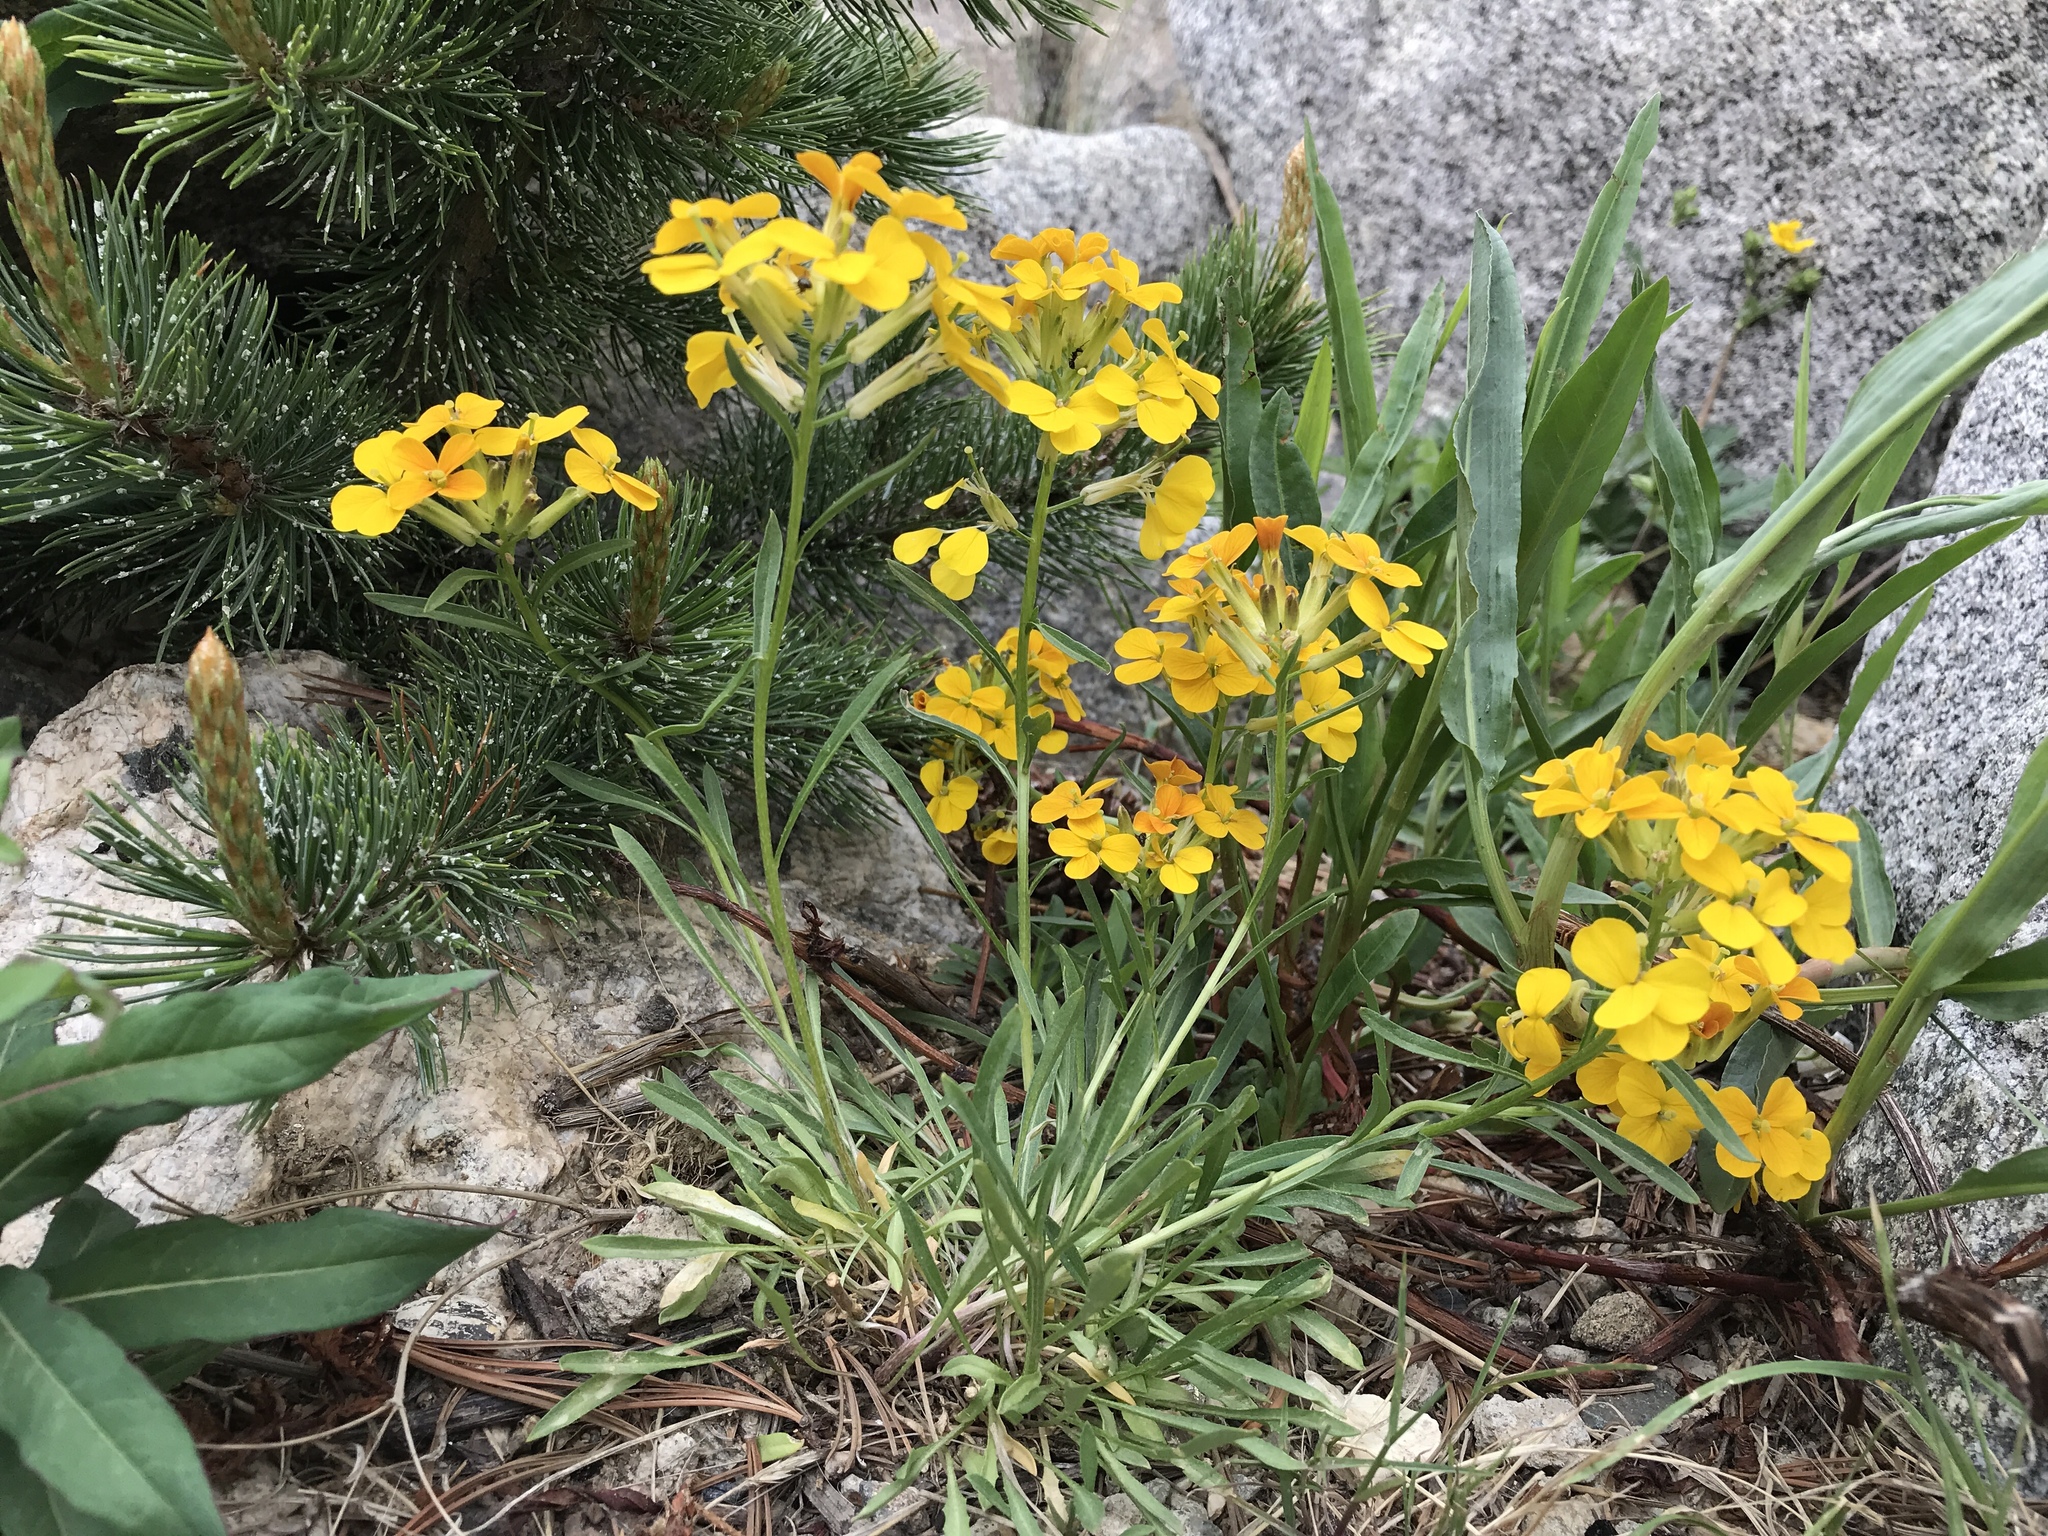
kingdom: Plantae
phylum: Tracheophyta
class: Magnoliopsida
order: Brassicales
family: Brassicaceae
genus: Erysimum
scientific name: Erysimum capitatum
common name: Western wallflower
